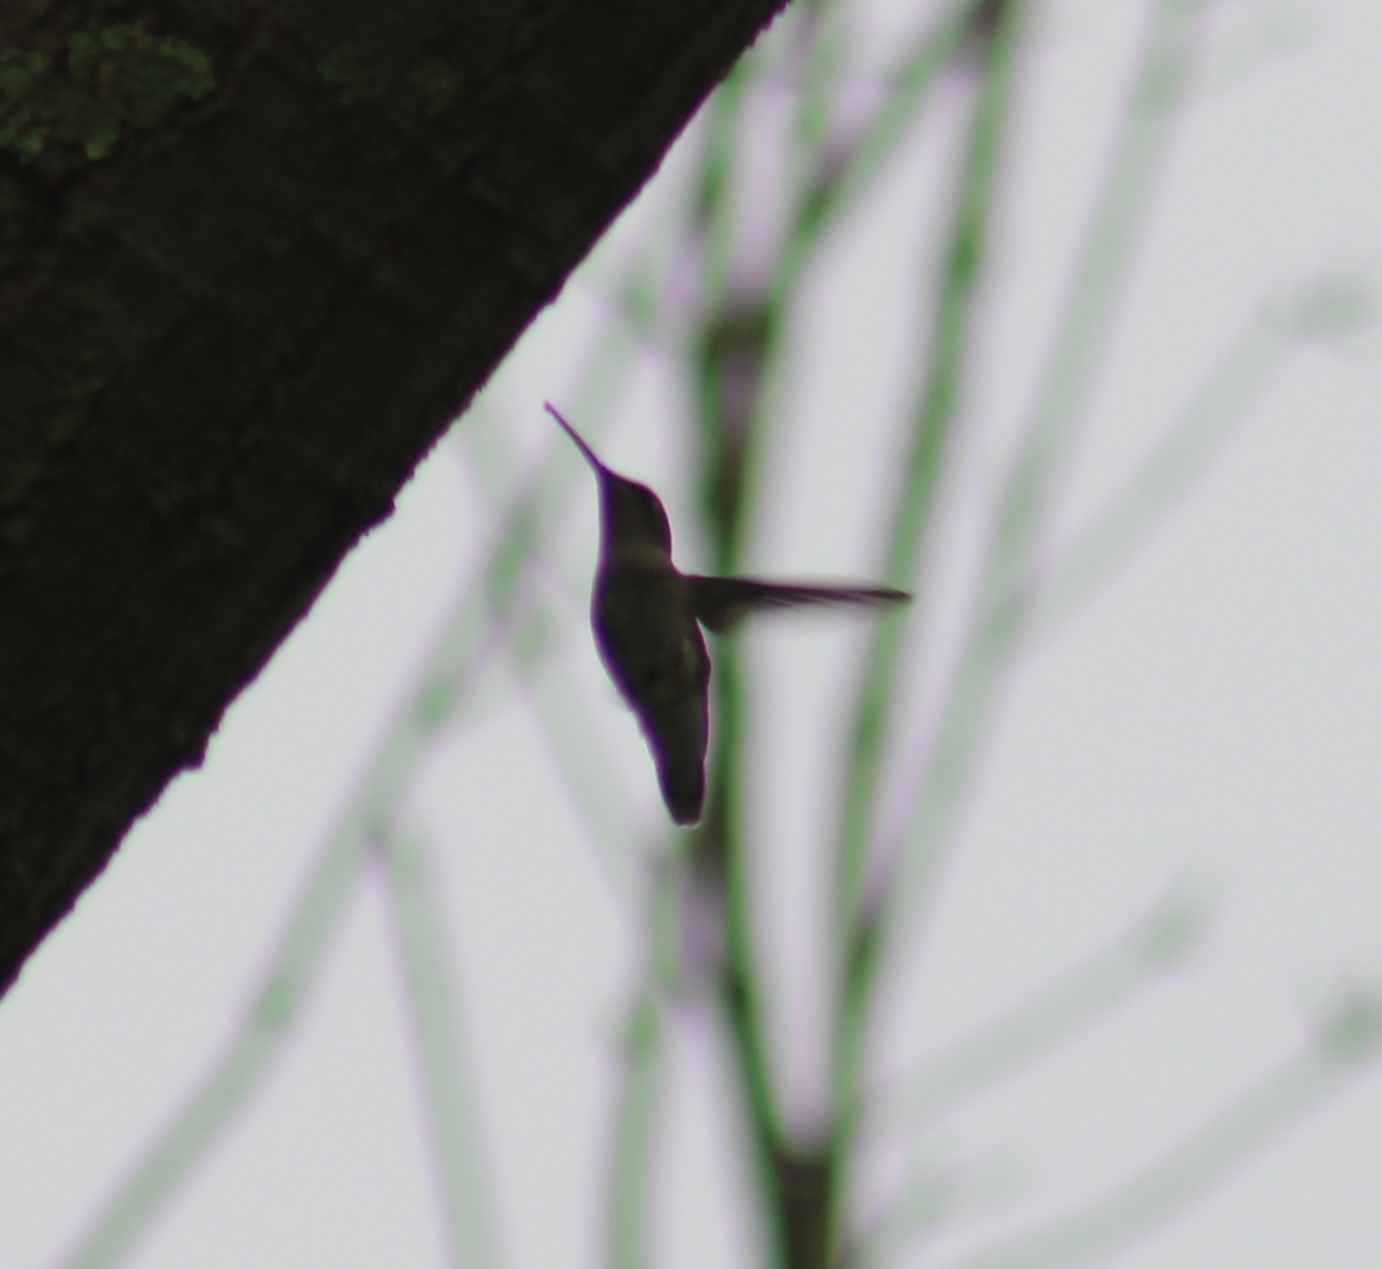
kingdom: Animalia
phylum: Chordata
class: Aves
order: Apodiformes
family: Trochilidae
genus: Archilochus
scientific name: Archilochus colubris
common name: Ruby-throated hummingbird
